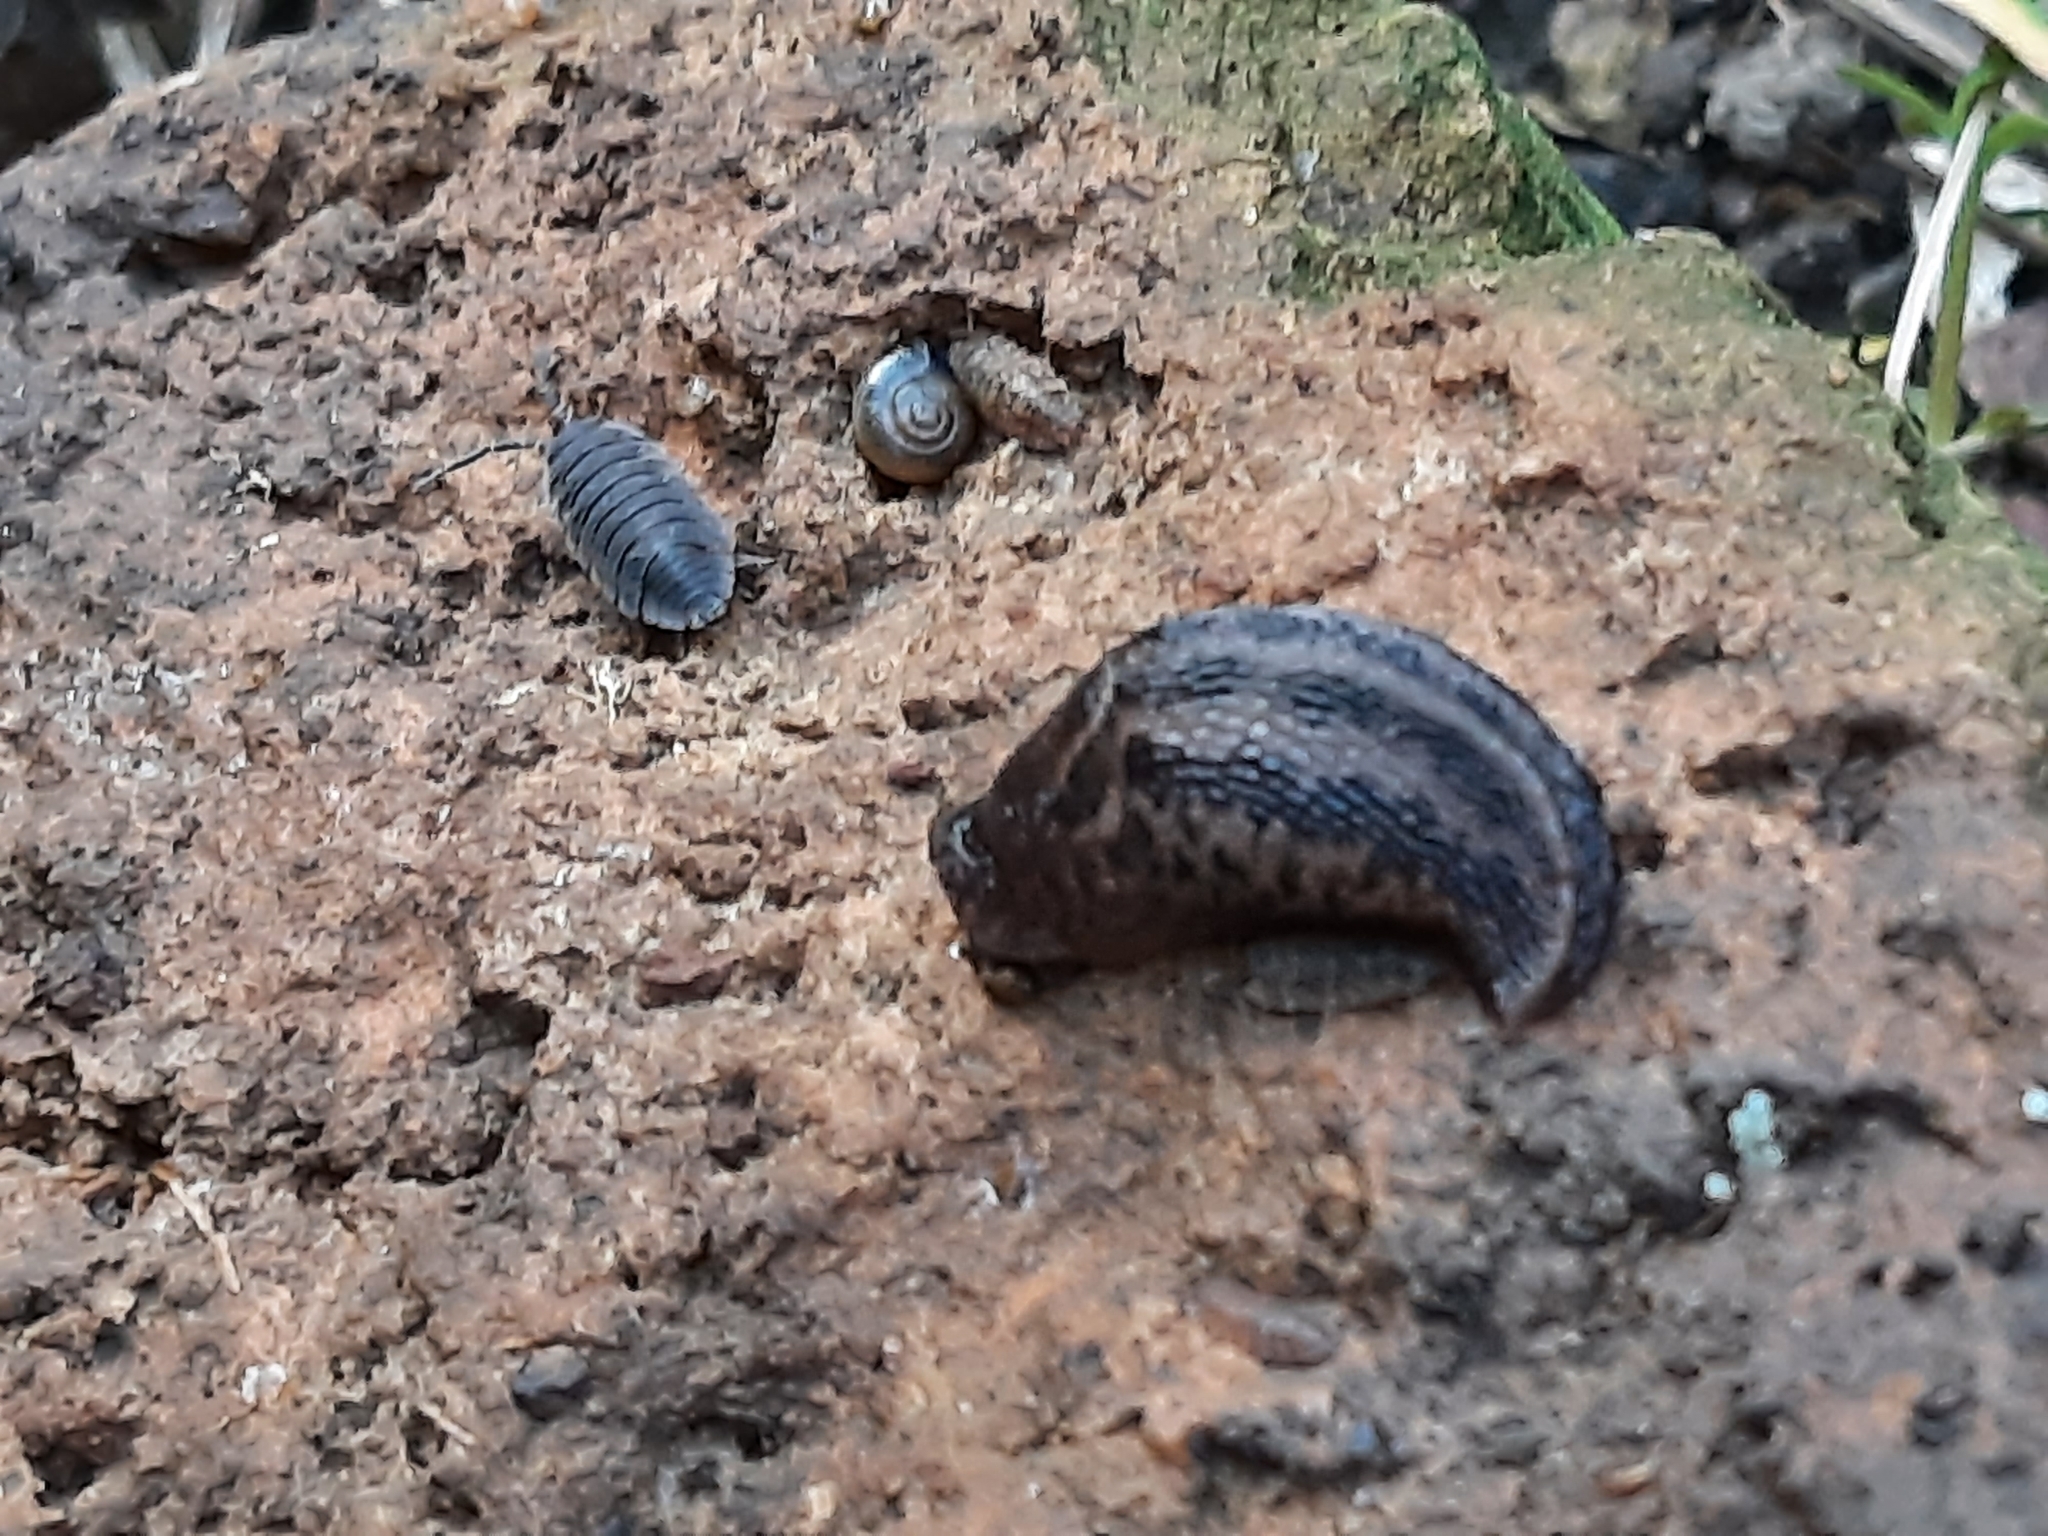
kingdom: Animalia
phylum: Arthropoda
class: Malacostraca
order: Isopoda
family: Porcellionidae
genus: Porcellio
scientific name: Porcellio scaber
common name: Common rough woodlouse
